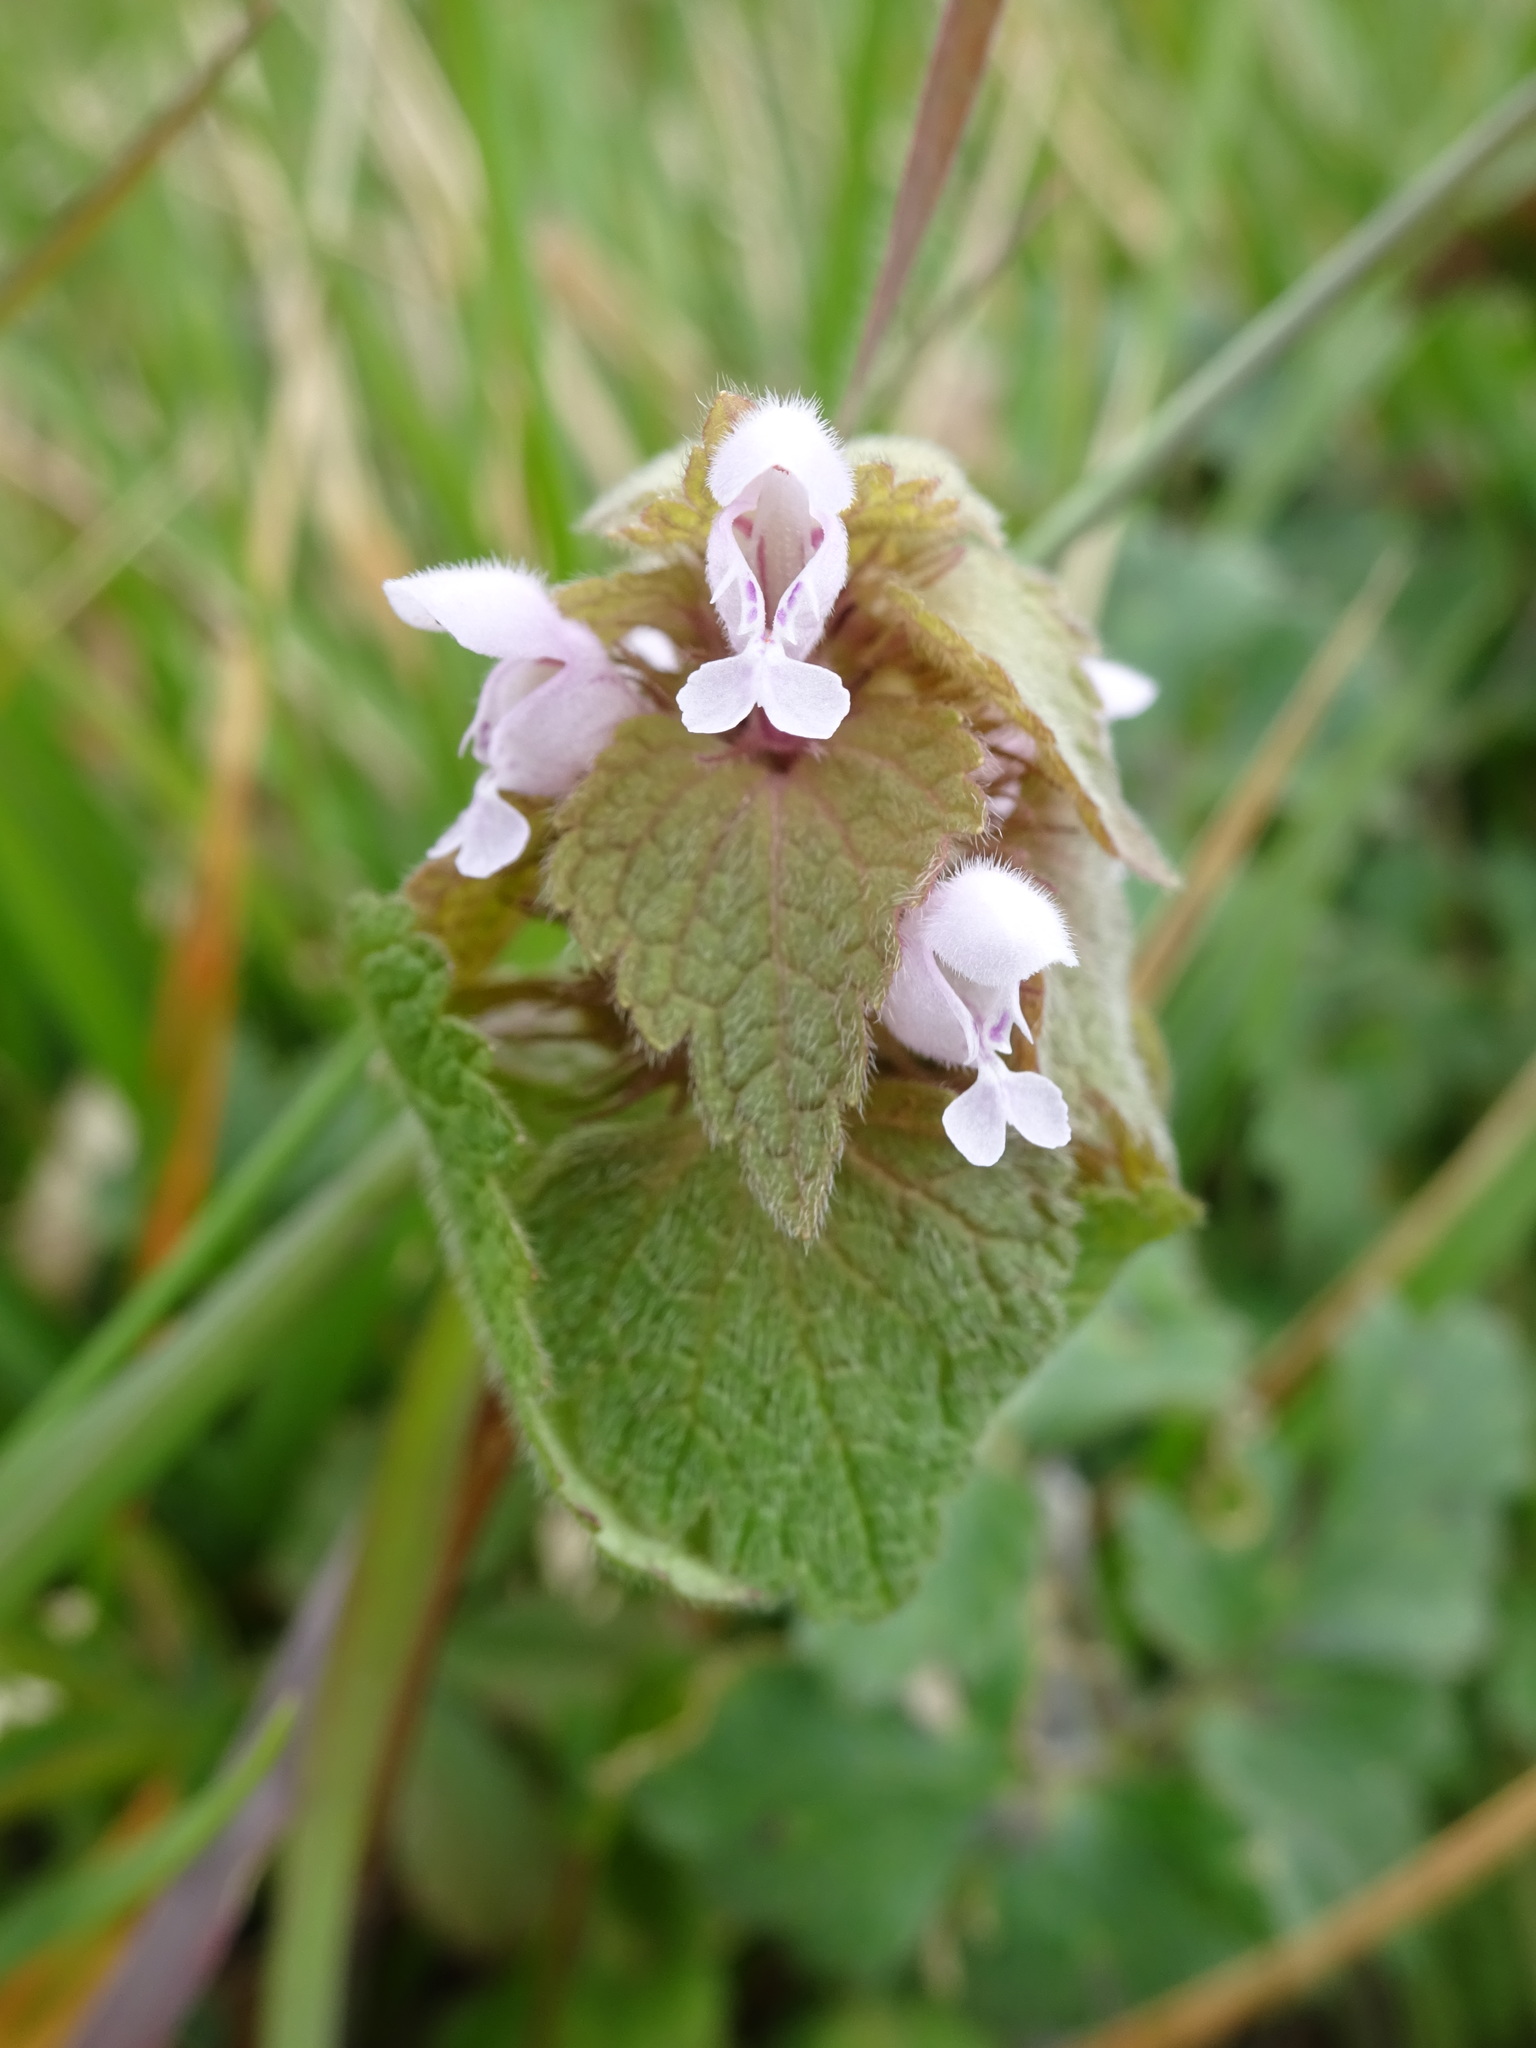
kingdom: Plantae
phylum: Tracheophyta
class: Magnoliopsida
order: Lamiales
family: Lamiaceae
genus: Lamium
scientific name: Lamium purpureum
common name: Red dead-nettle
